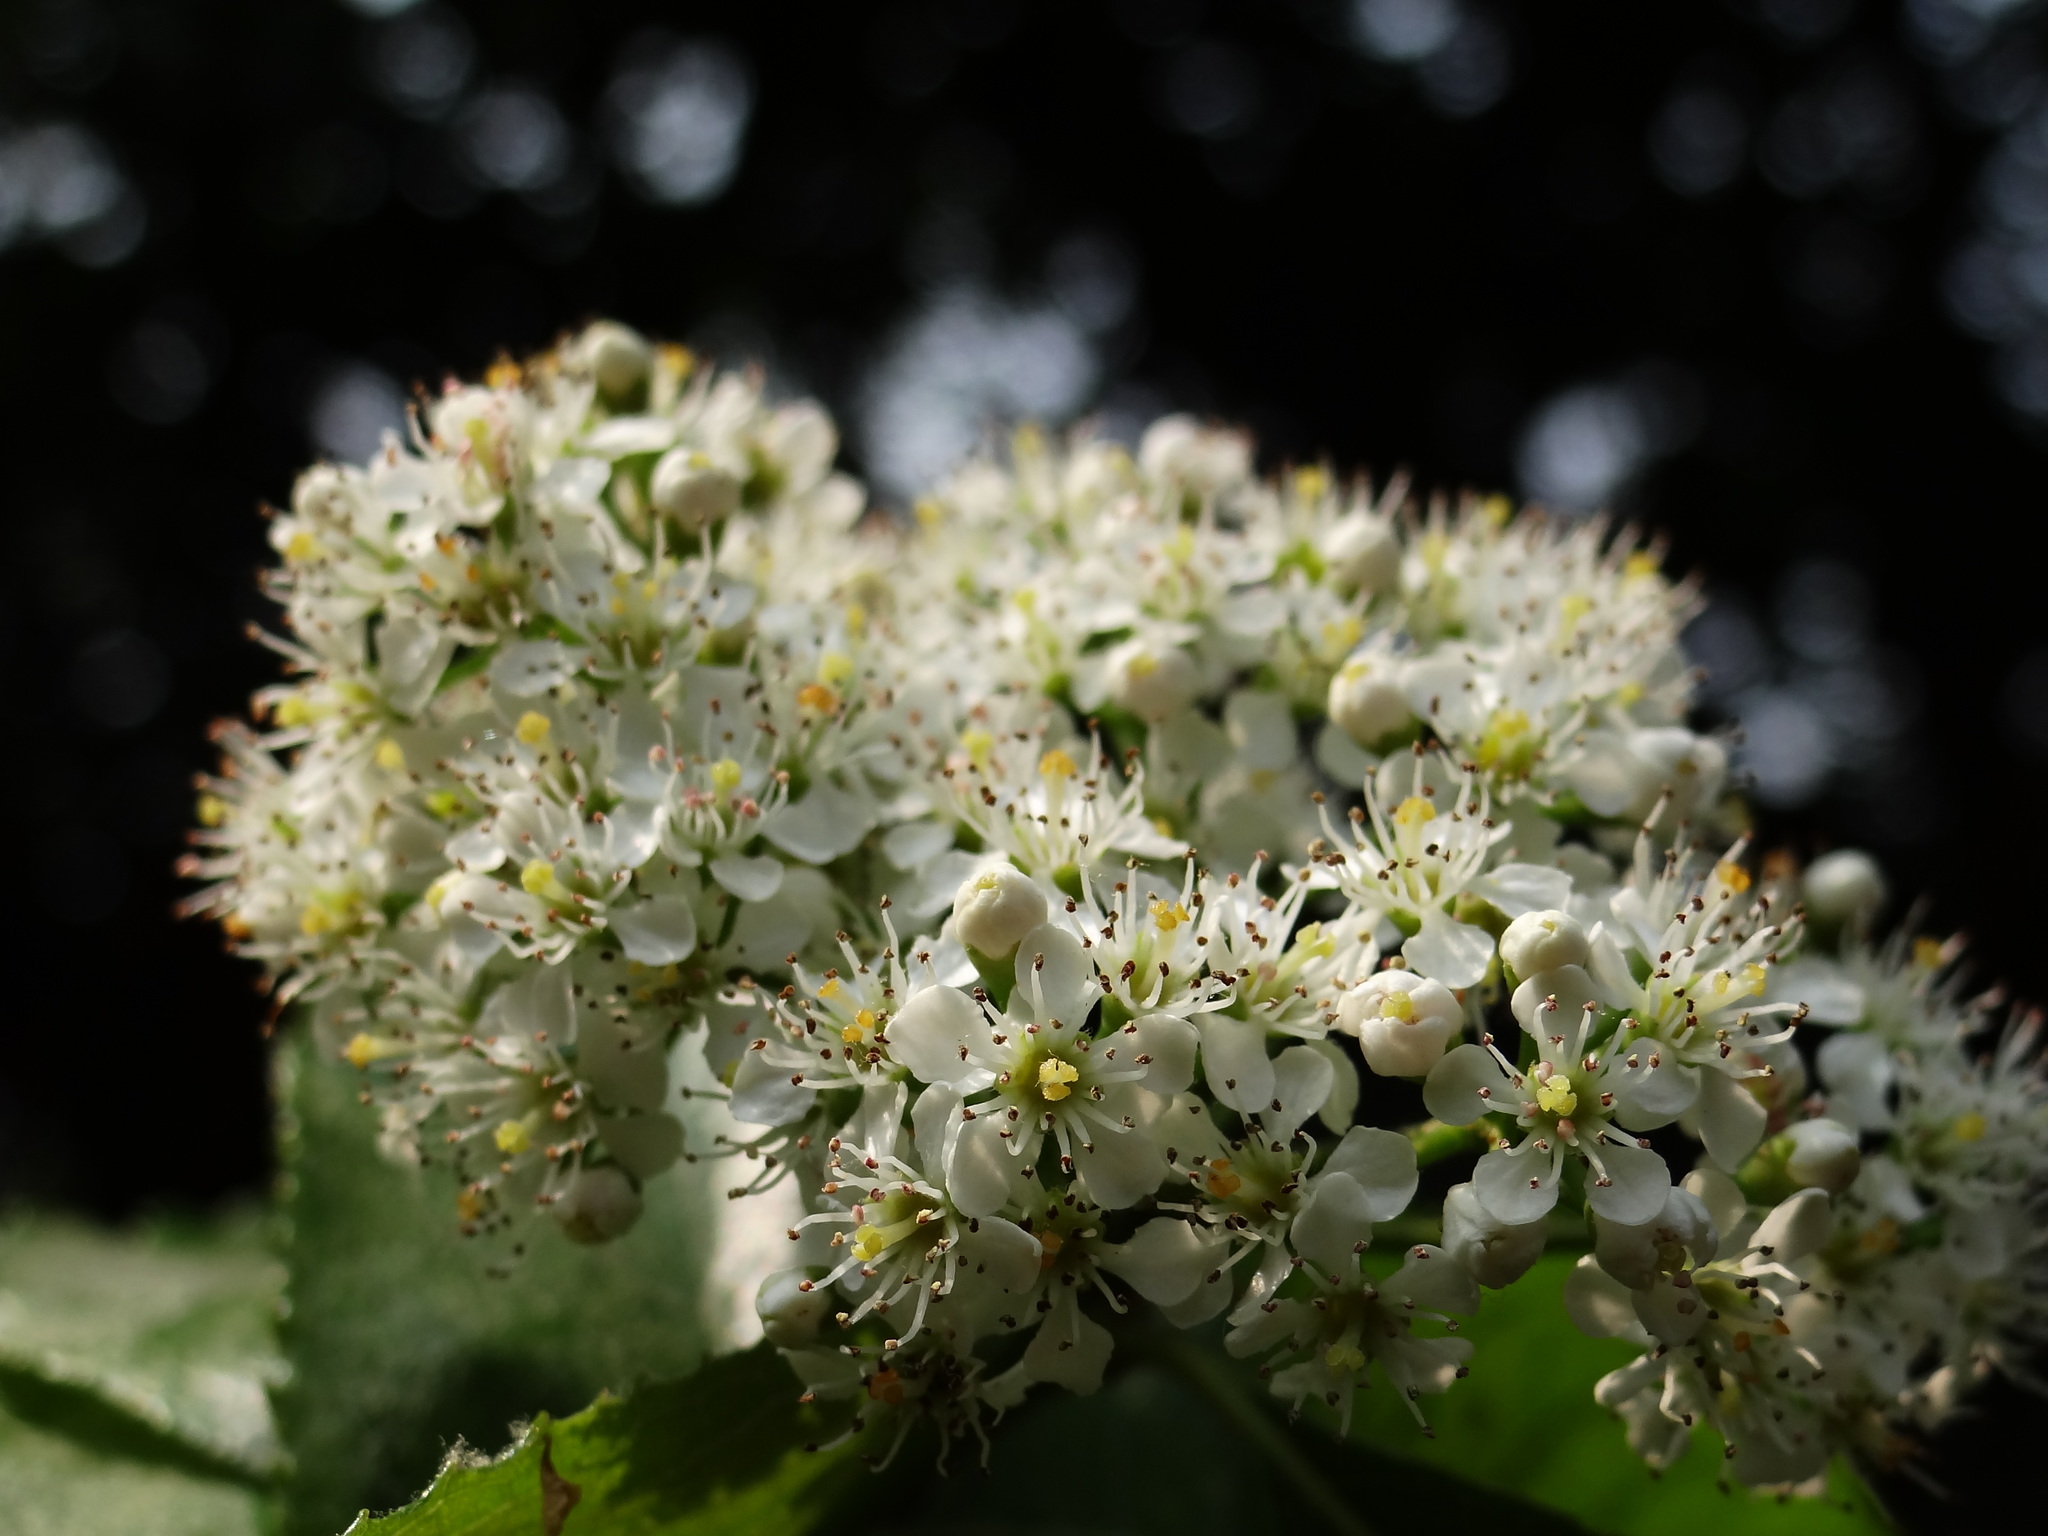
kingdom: Plantae
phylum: Tracheophyta
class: Magnoliopsida
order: Rosales
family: Rosaceae
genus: Pourthiaea
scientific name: Pourthiaea beauverdiana
